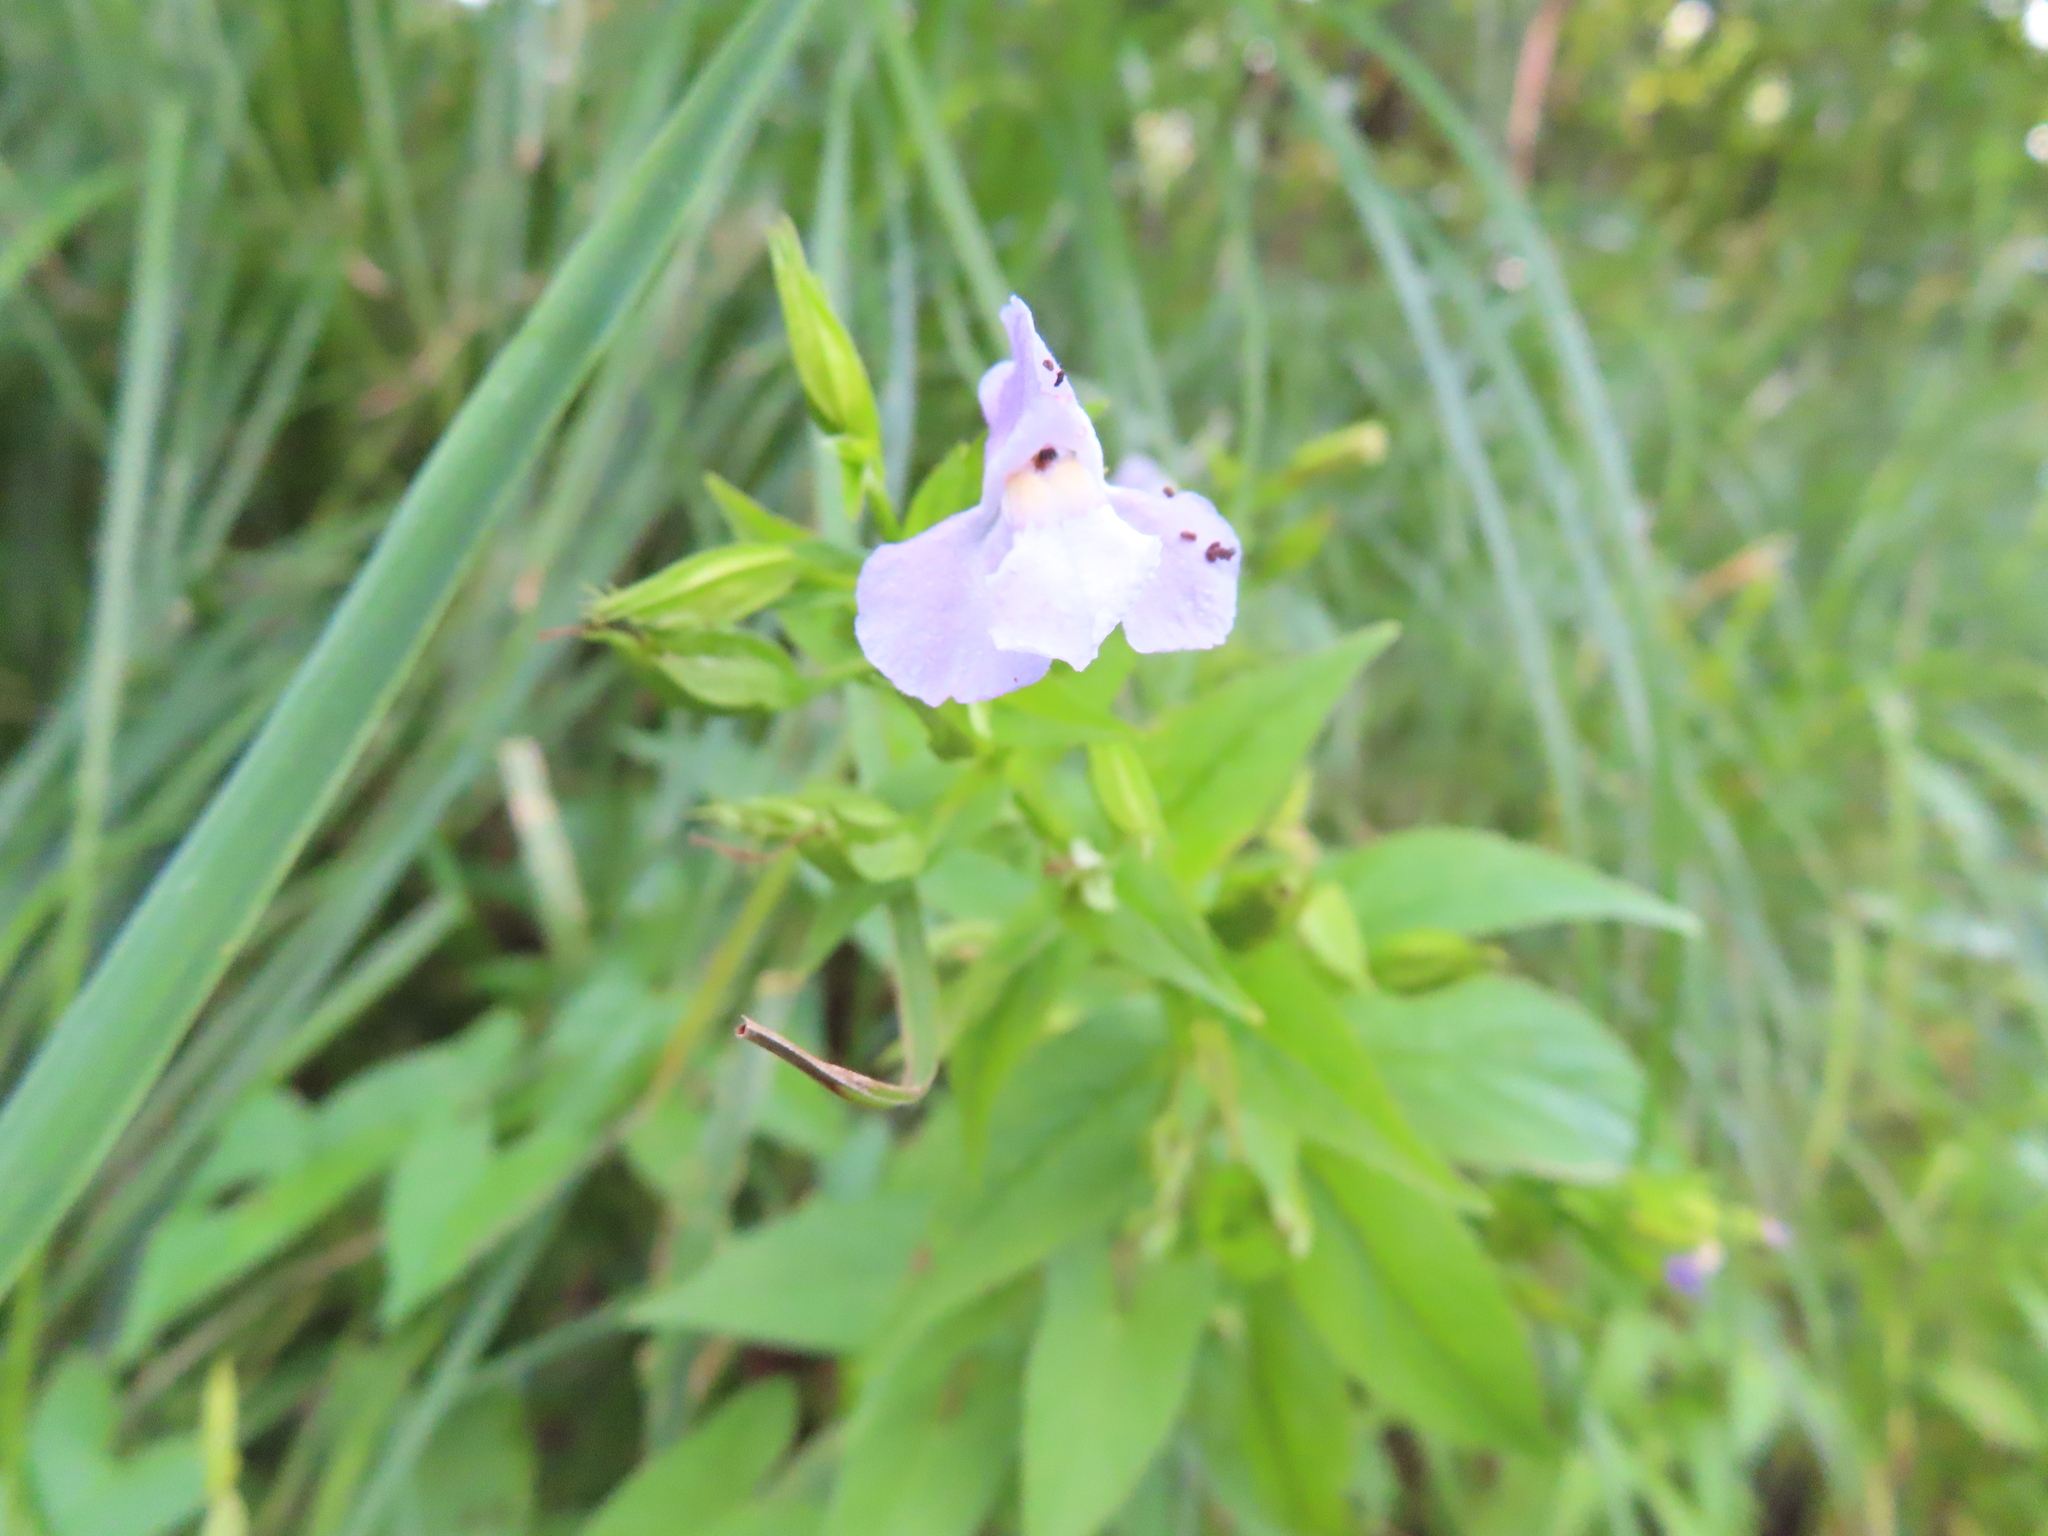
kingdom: Plantae
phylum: Tracheophyta
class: Magnoliopsida
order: Lamiales
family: Phrymaceae
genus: Mimulus
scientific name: Mimulus ringens
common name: Allegheny monkeyflower
